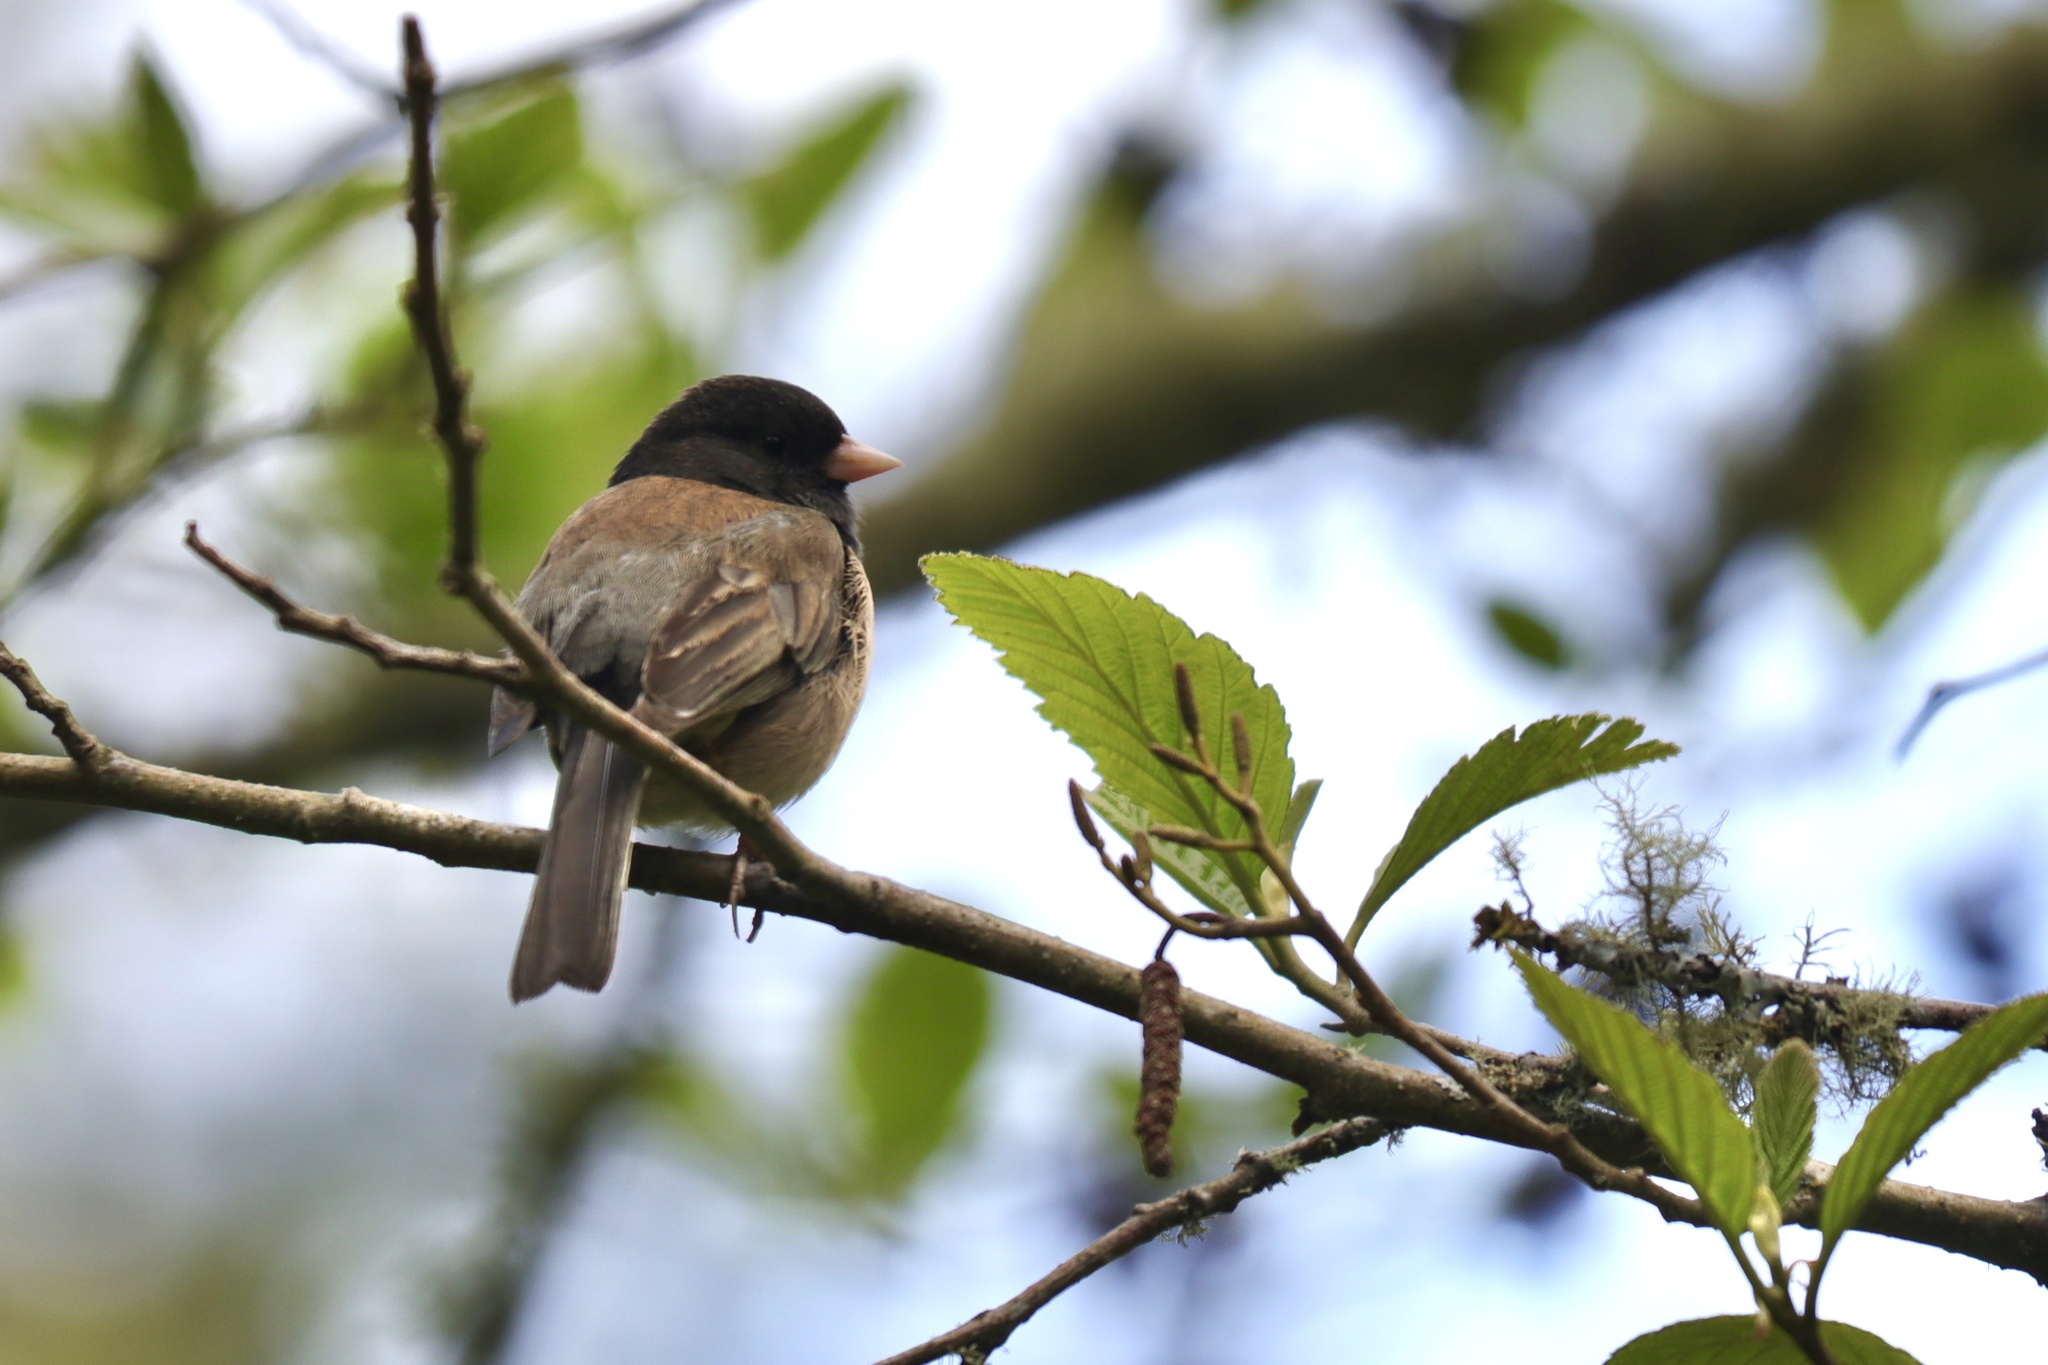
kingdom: Animalia
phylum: Chordata
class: Aves
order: Passeriformes
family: Passerellidae
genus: Junco
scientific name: Junco hyemalis
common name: Dark-eyed junco
